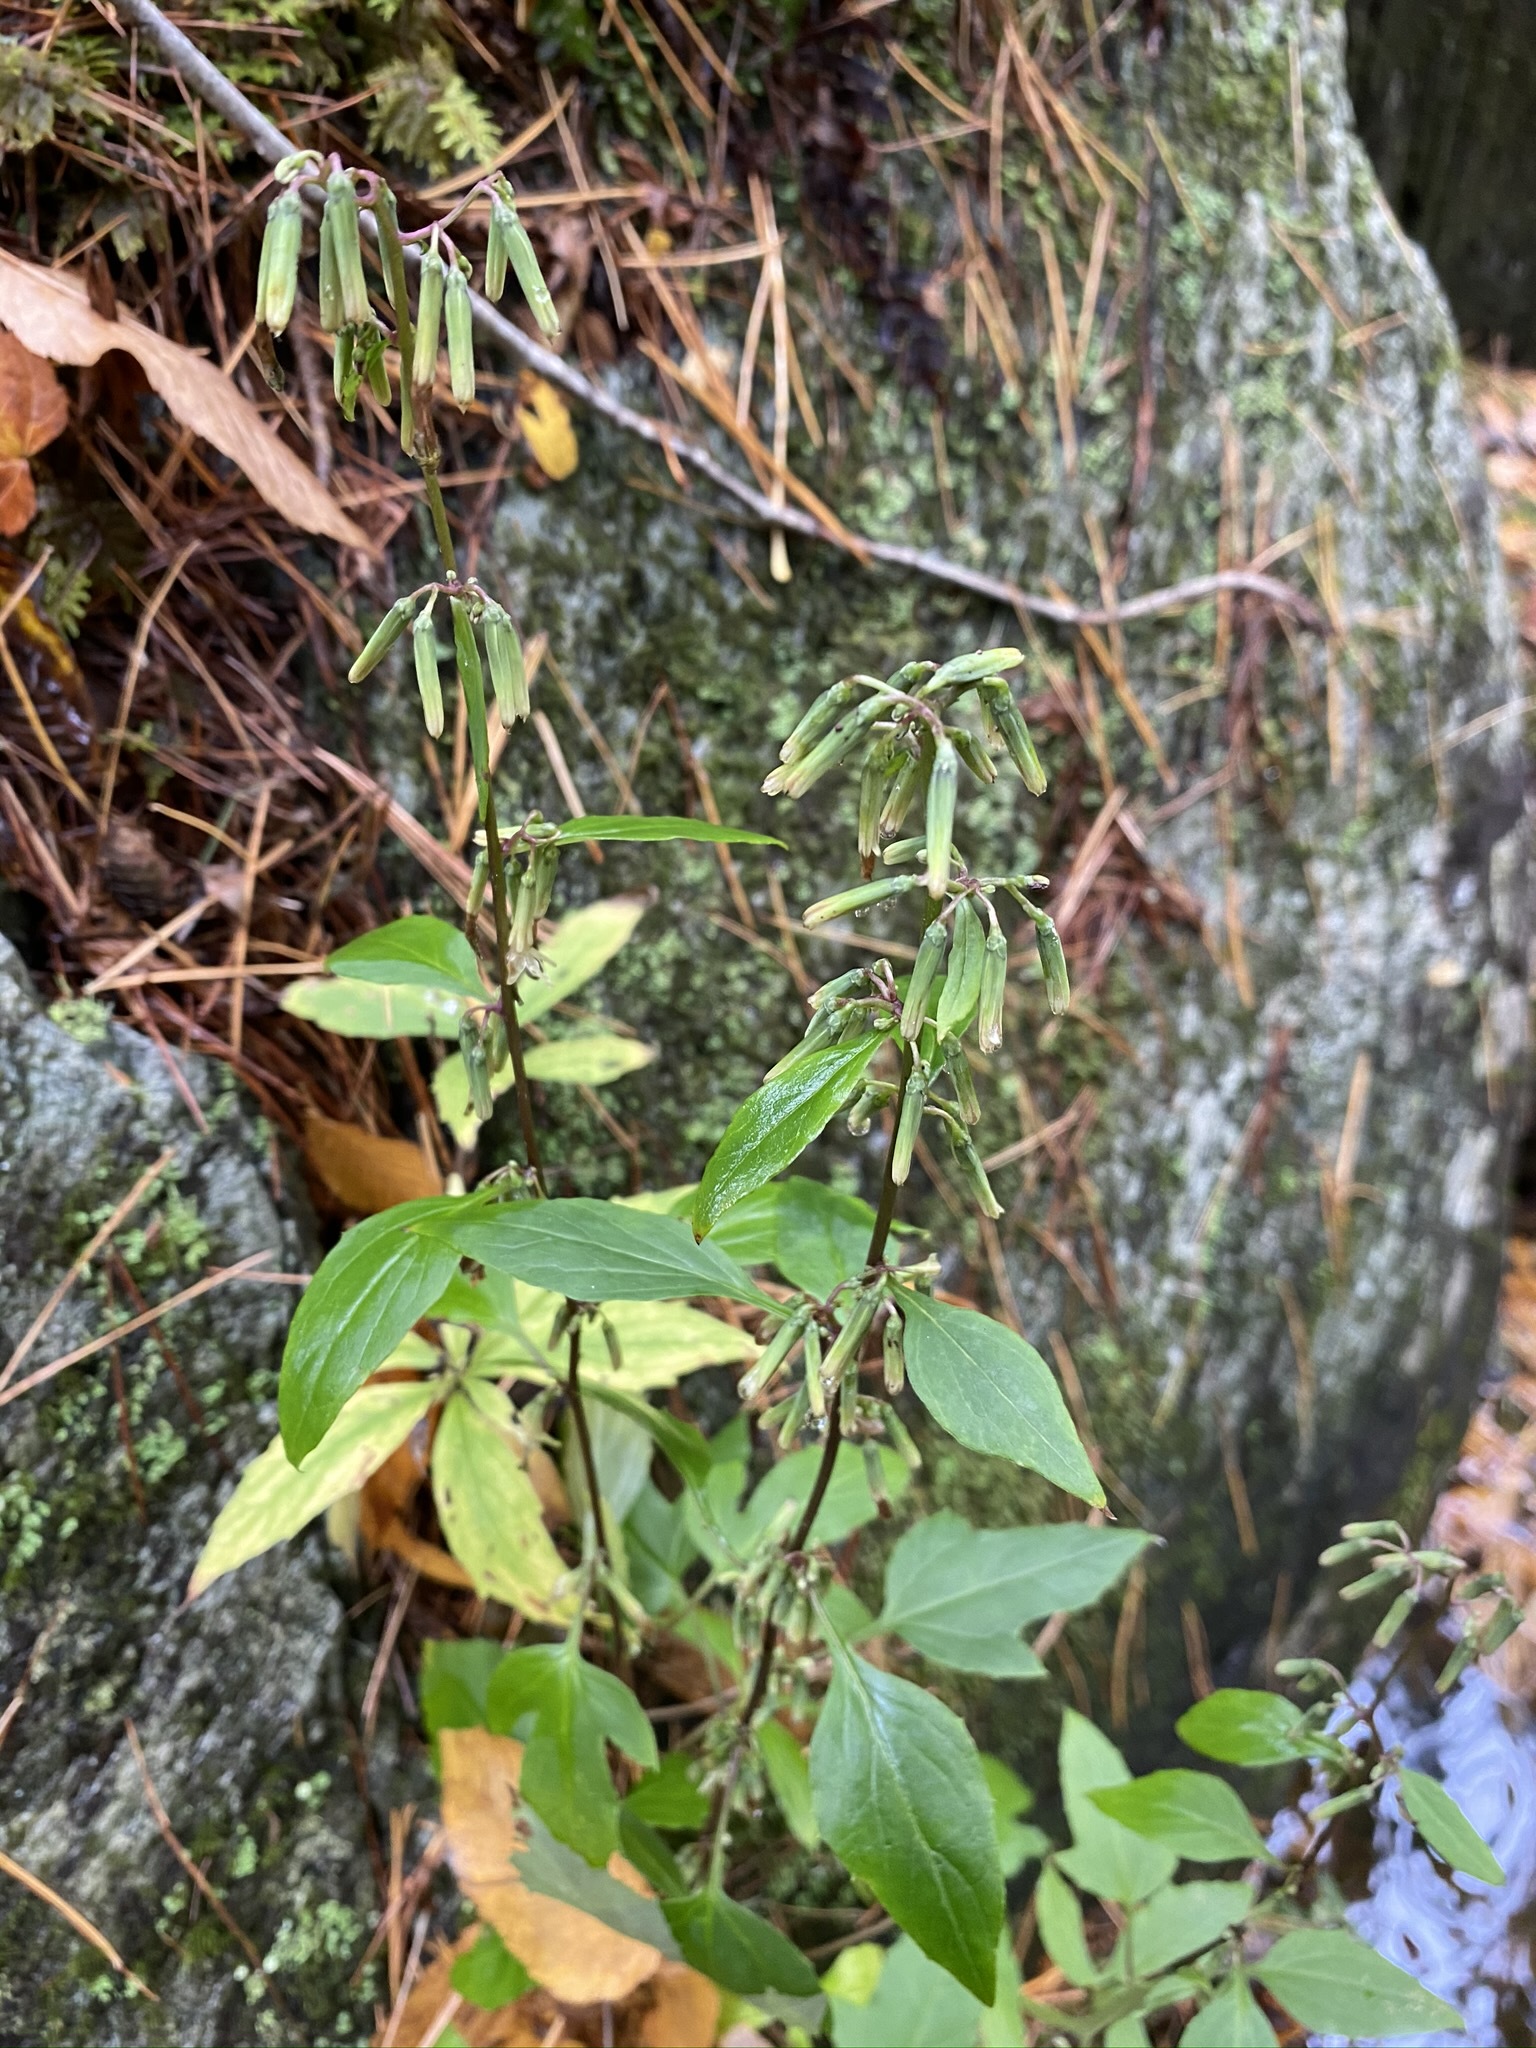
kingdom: Plantae
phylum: Tracheophyta
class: Magnoliopsida
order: Asterales
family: Asteraceae
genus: Nabalus
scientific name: Nabalus altissima
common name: Tall rattlesnakeroot
